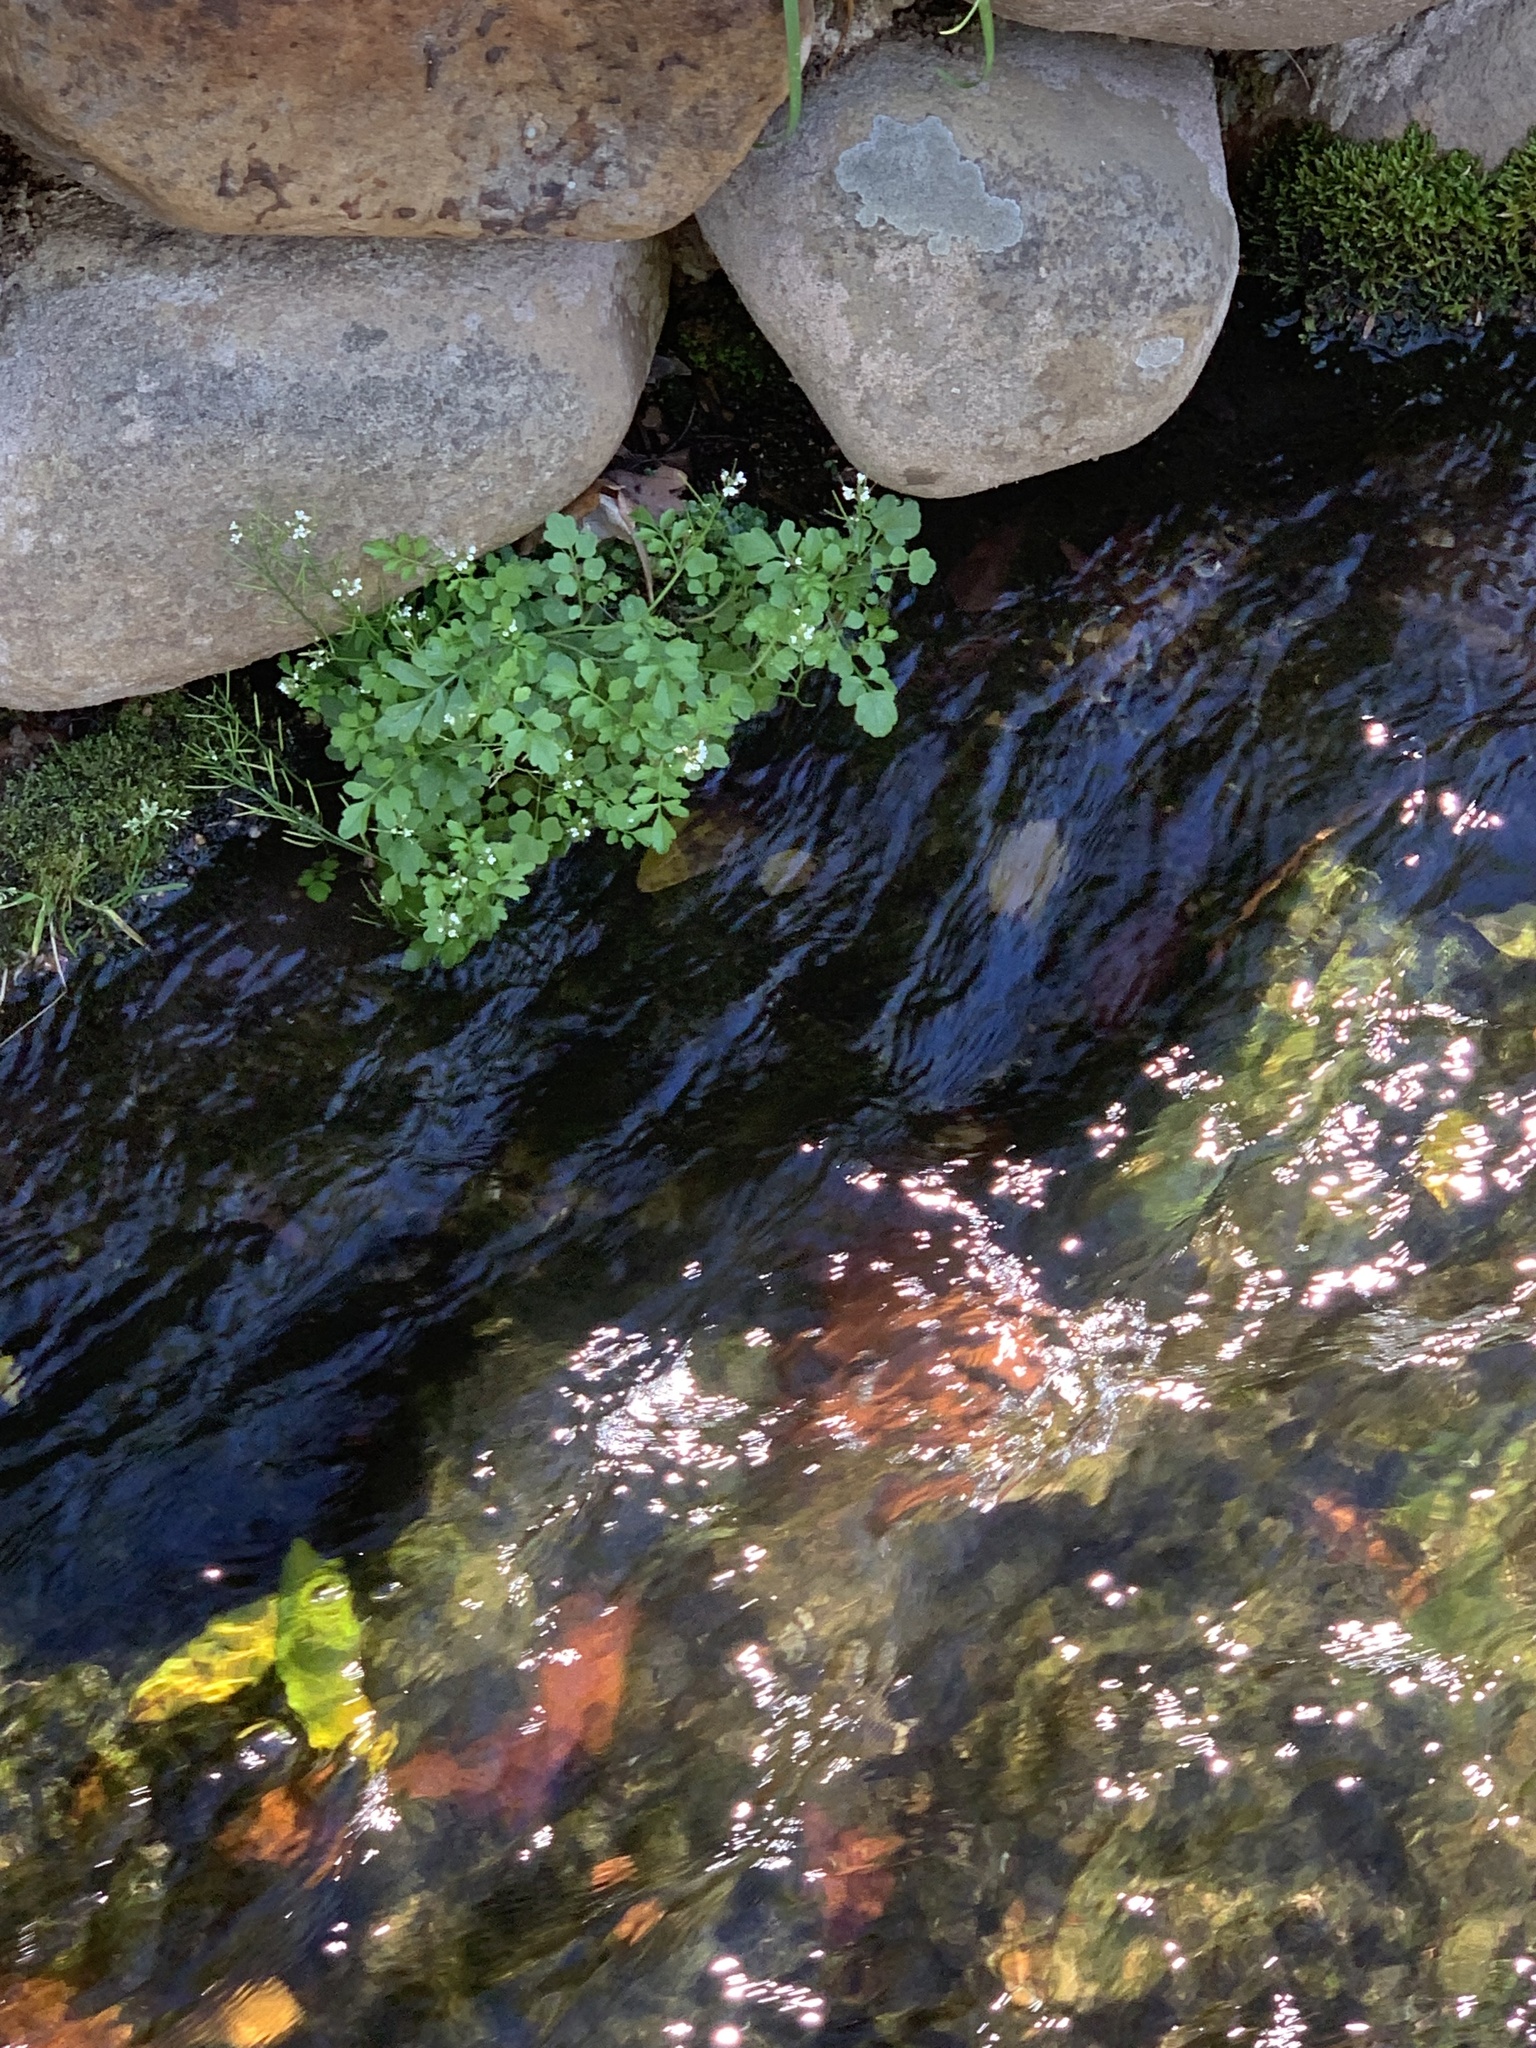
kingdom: Plantae
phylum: Tracheophyta
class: Magnoliopsida
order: Brassicales
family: Brassicaceae
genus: Cardamine
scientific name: Cardamine occulta
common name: Asian wavy bittercress
